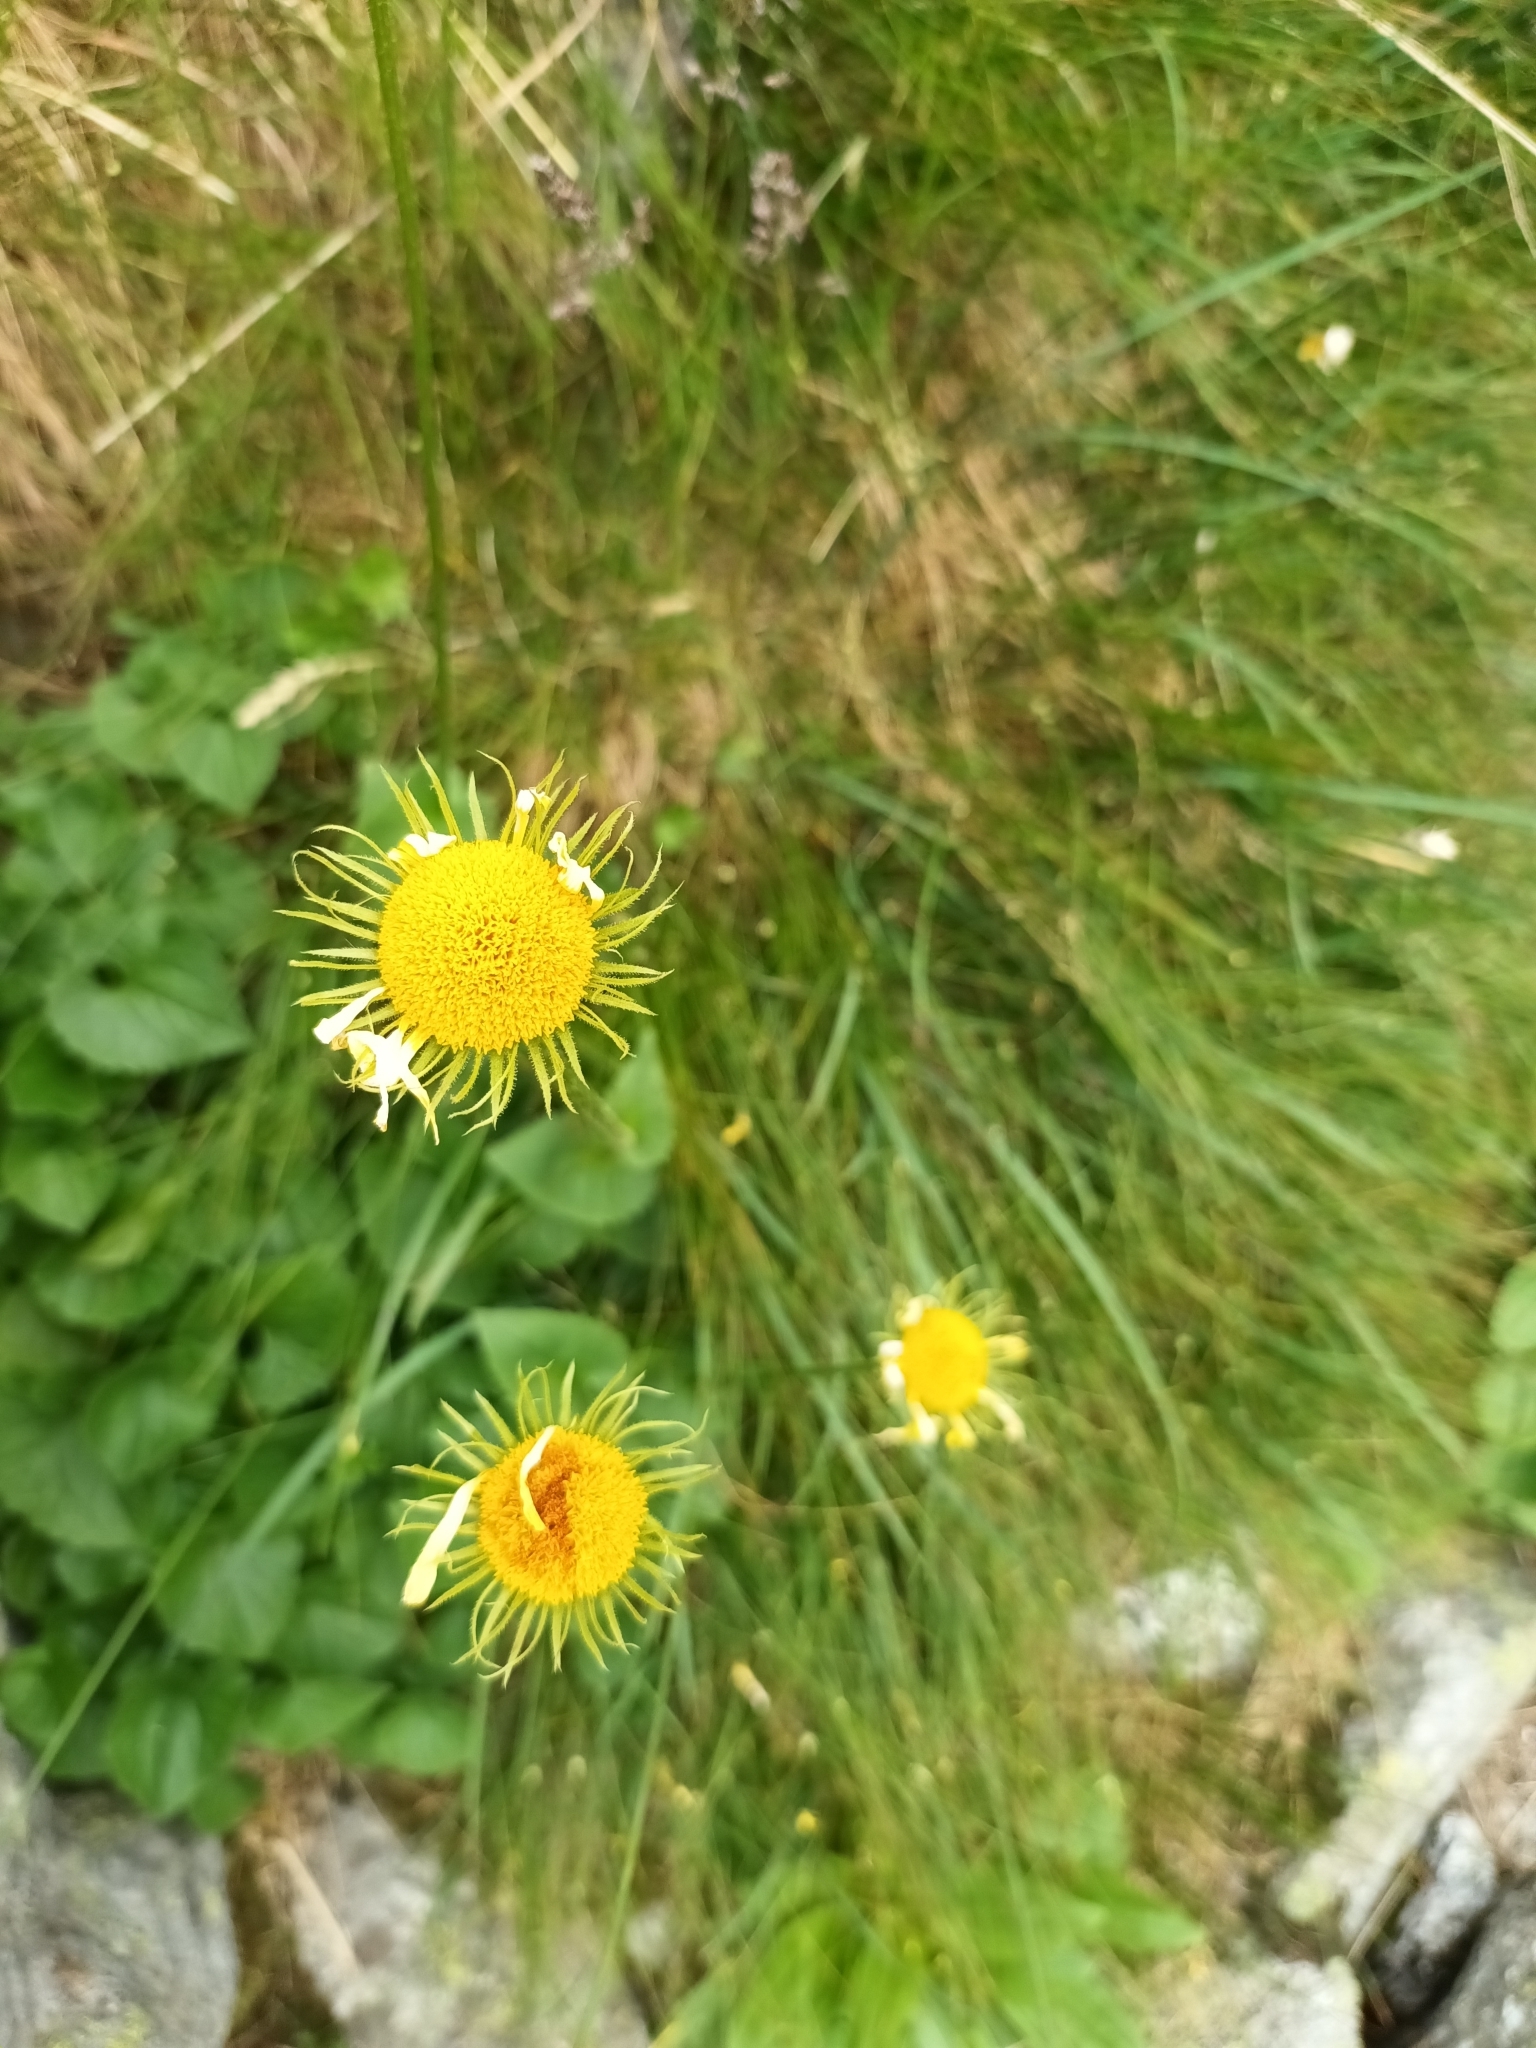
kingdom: Plantae
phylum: Tracheophyta
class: Magnoliopsida
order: Asterales
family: Asteraceae
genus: Doronicum
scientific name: Doronicum columnae
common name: Eastern leopard's-bane
